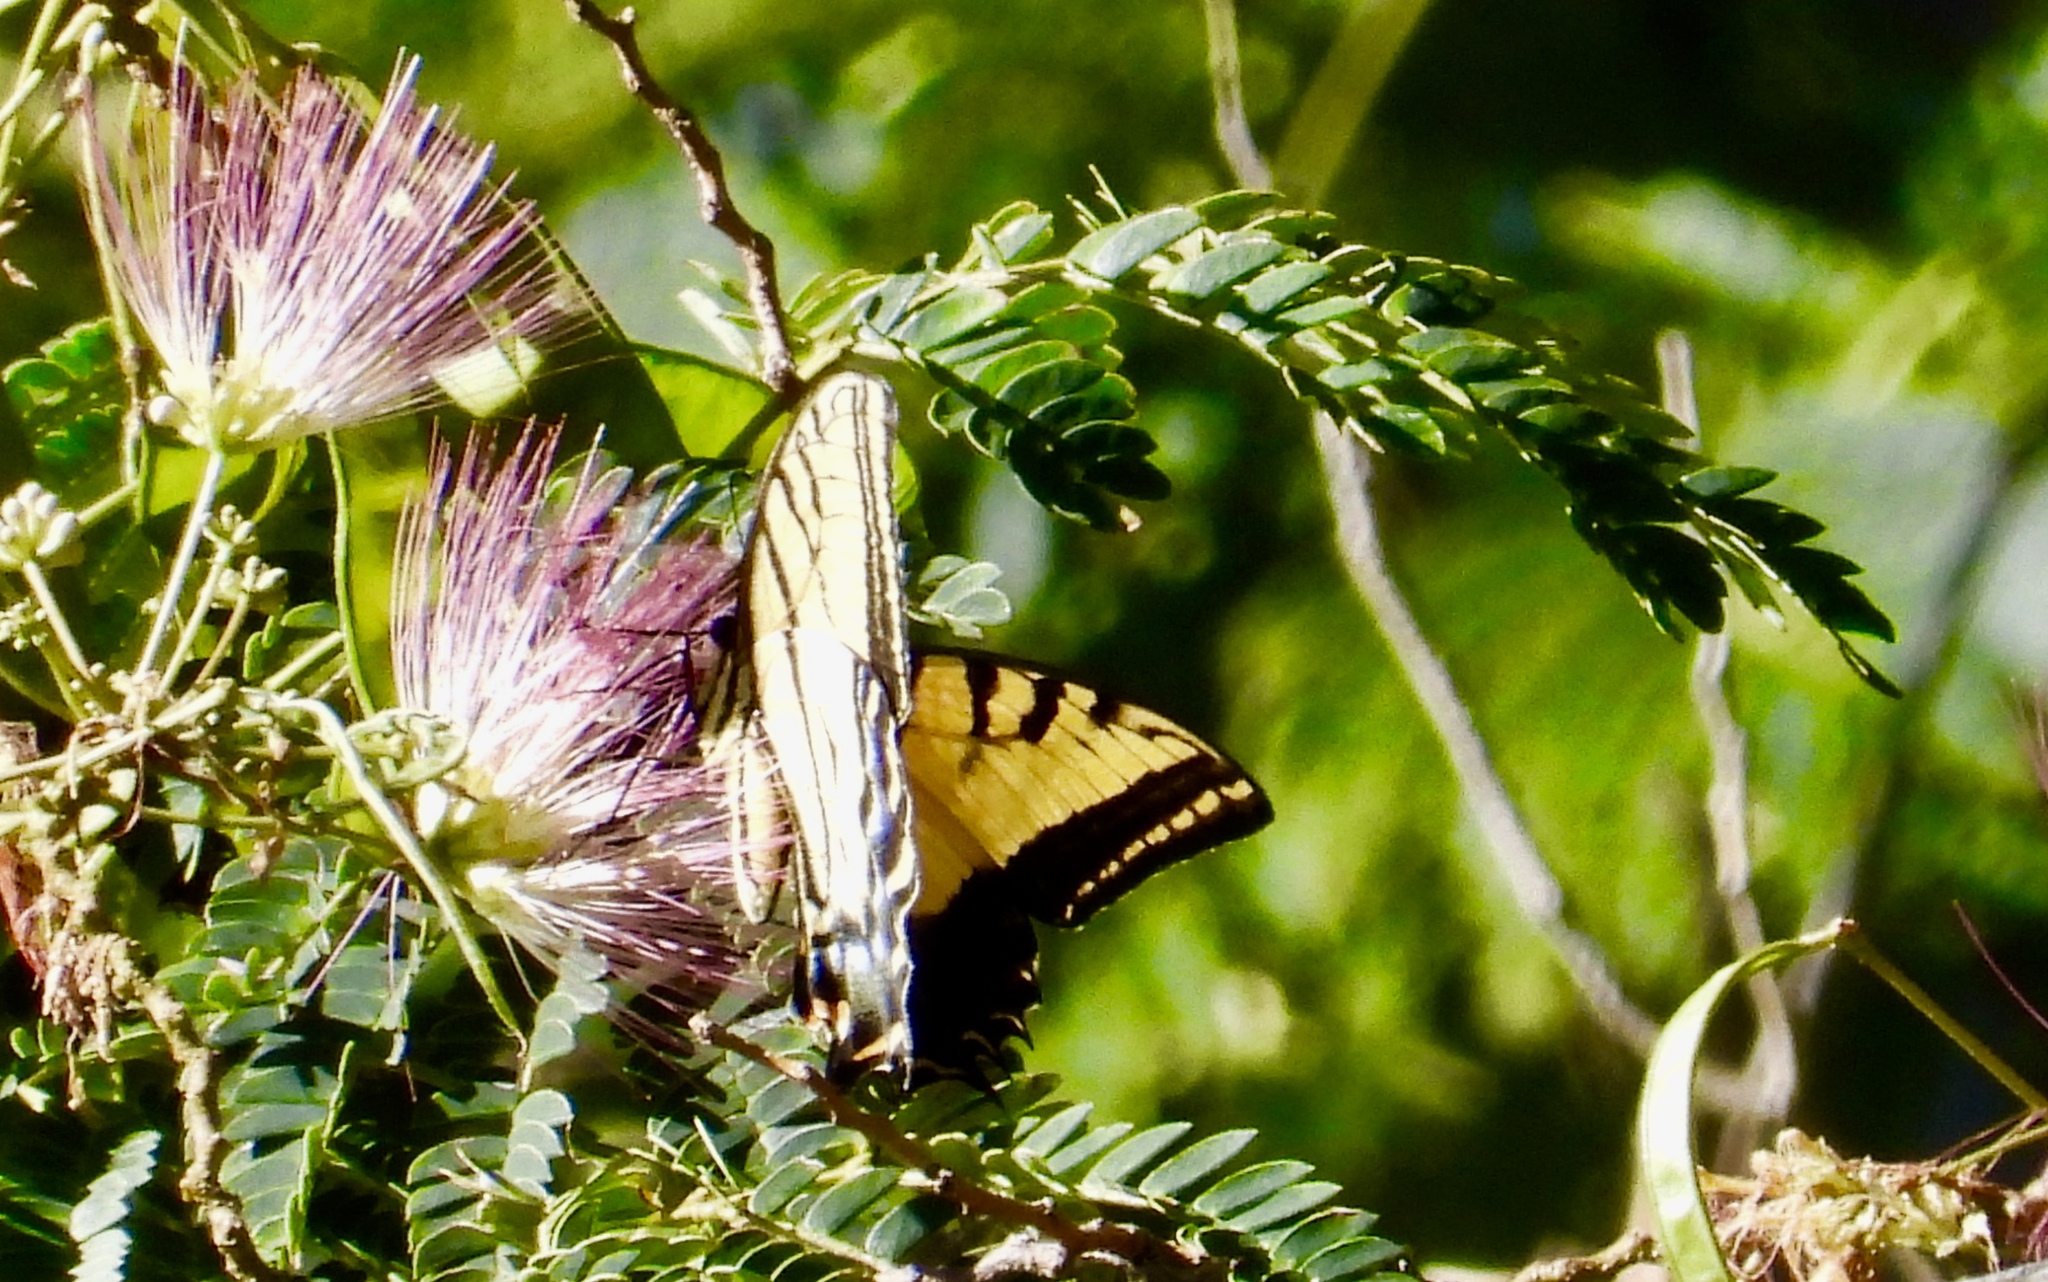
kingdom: Animalia
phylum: Arthropoda
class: Insecta
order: Lepidoptera
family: Papilionidae
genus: Papilio
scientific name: Papilio multicaudata
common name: Two-tailed tiger swallowtail
